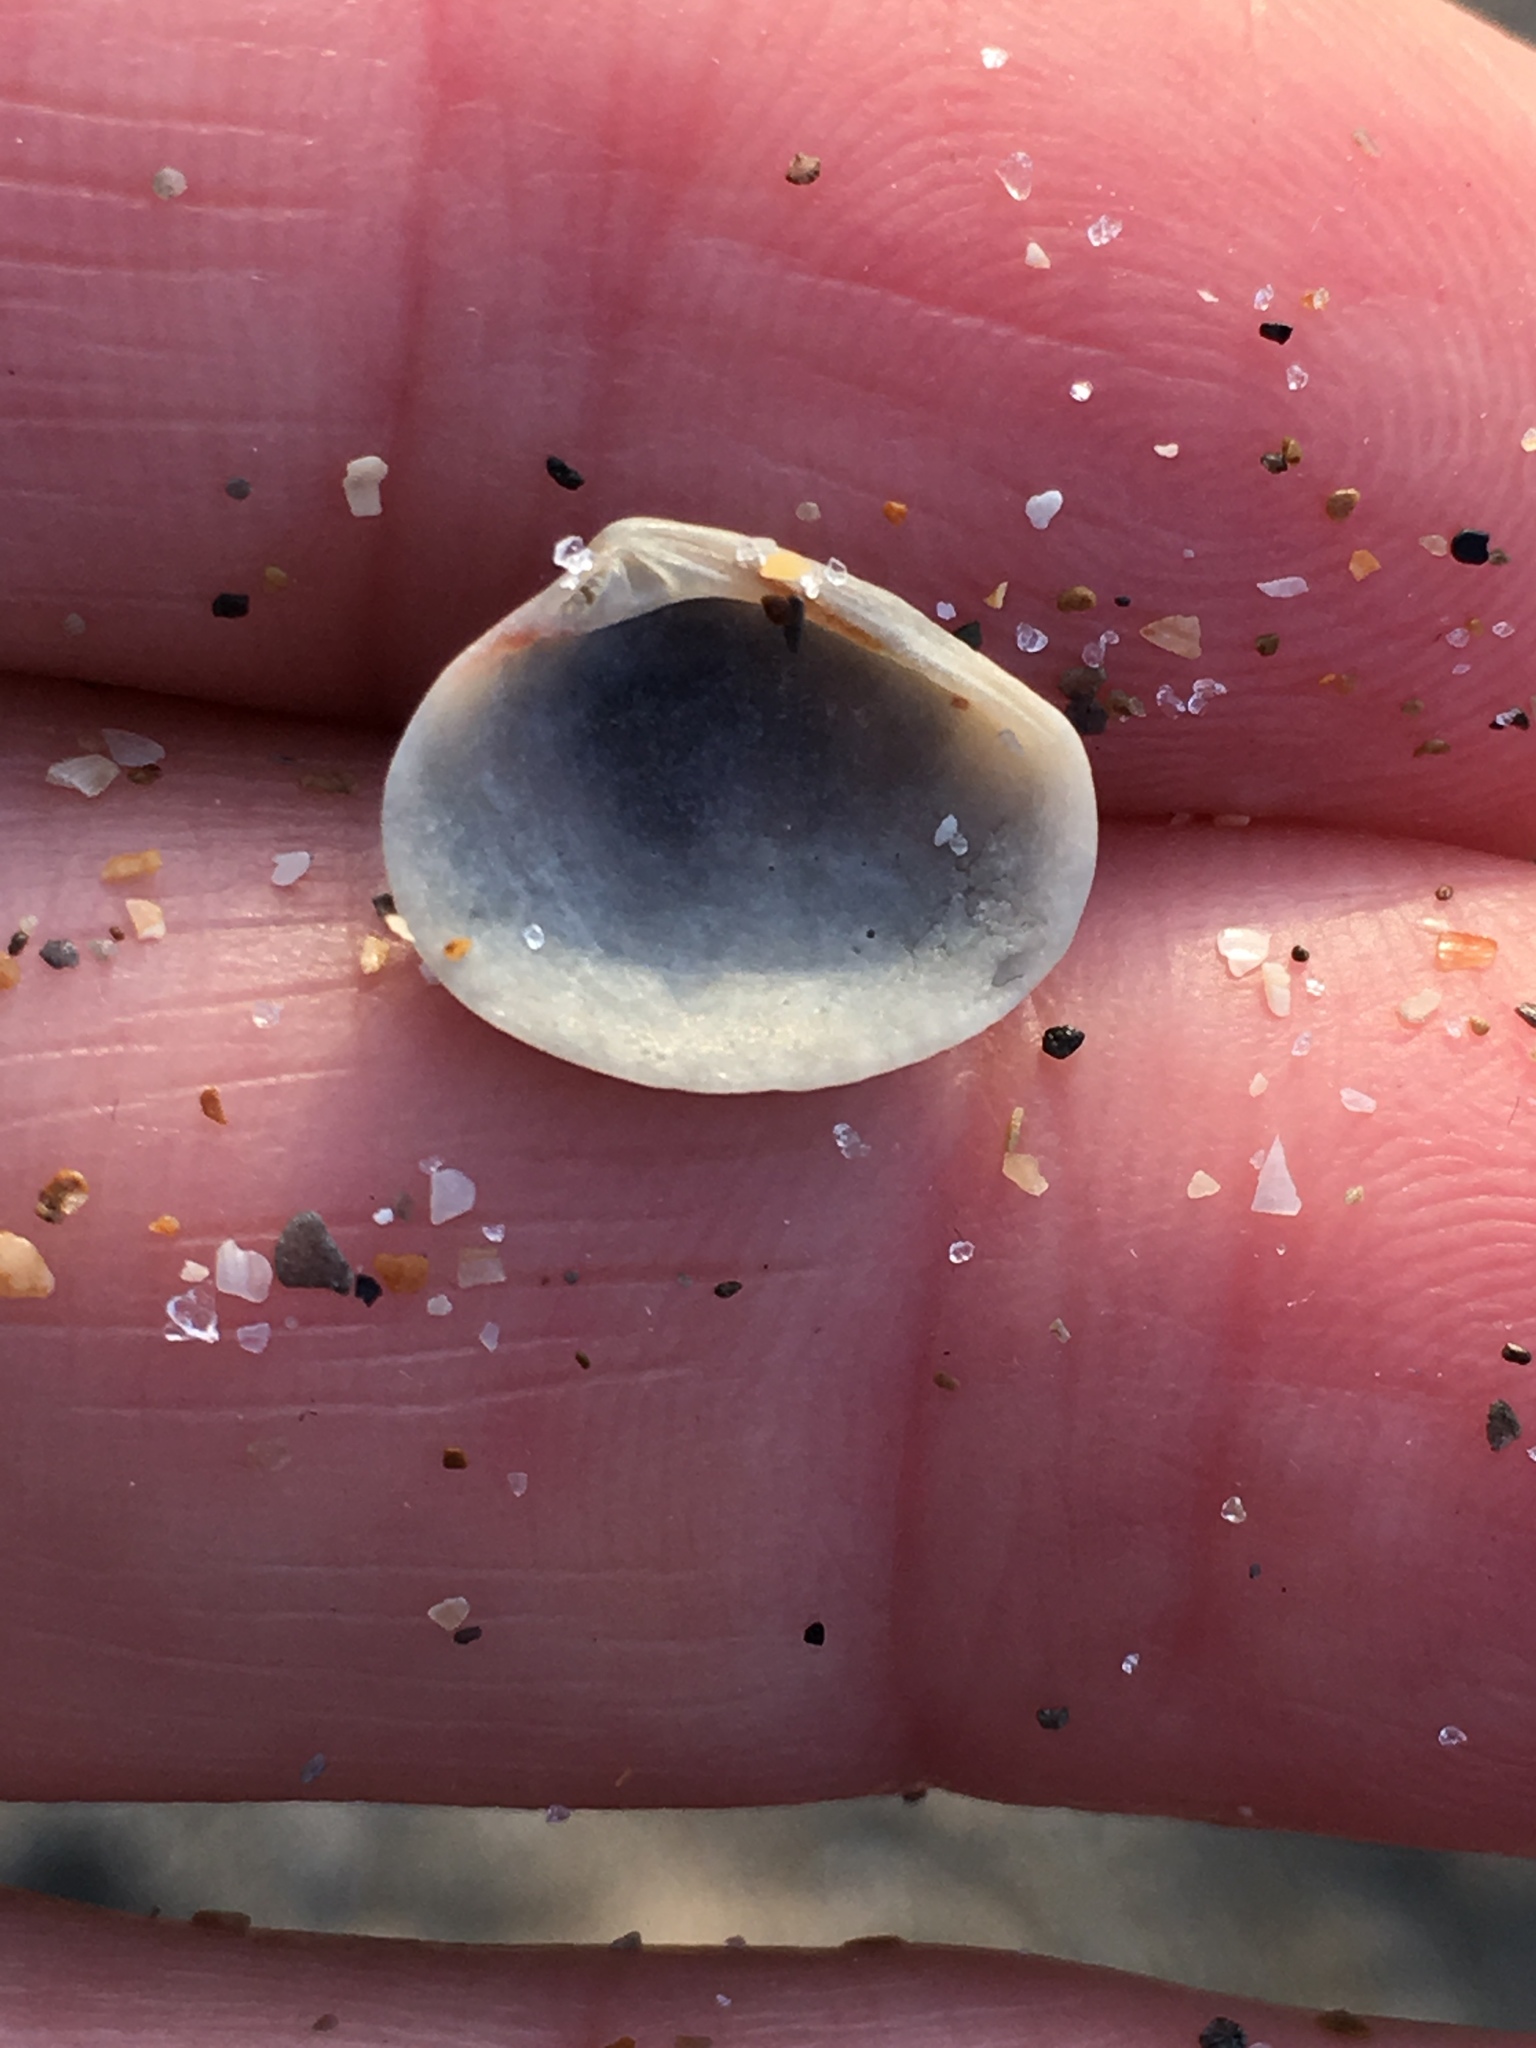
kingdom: Animalia
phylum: Mollusca
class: Bivalvia
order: Venerida
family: Veneridae
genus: Chioneryx
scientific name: Chioneryx grus
